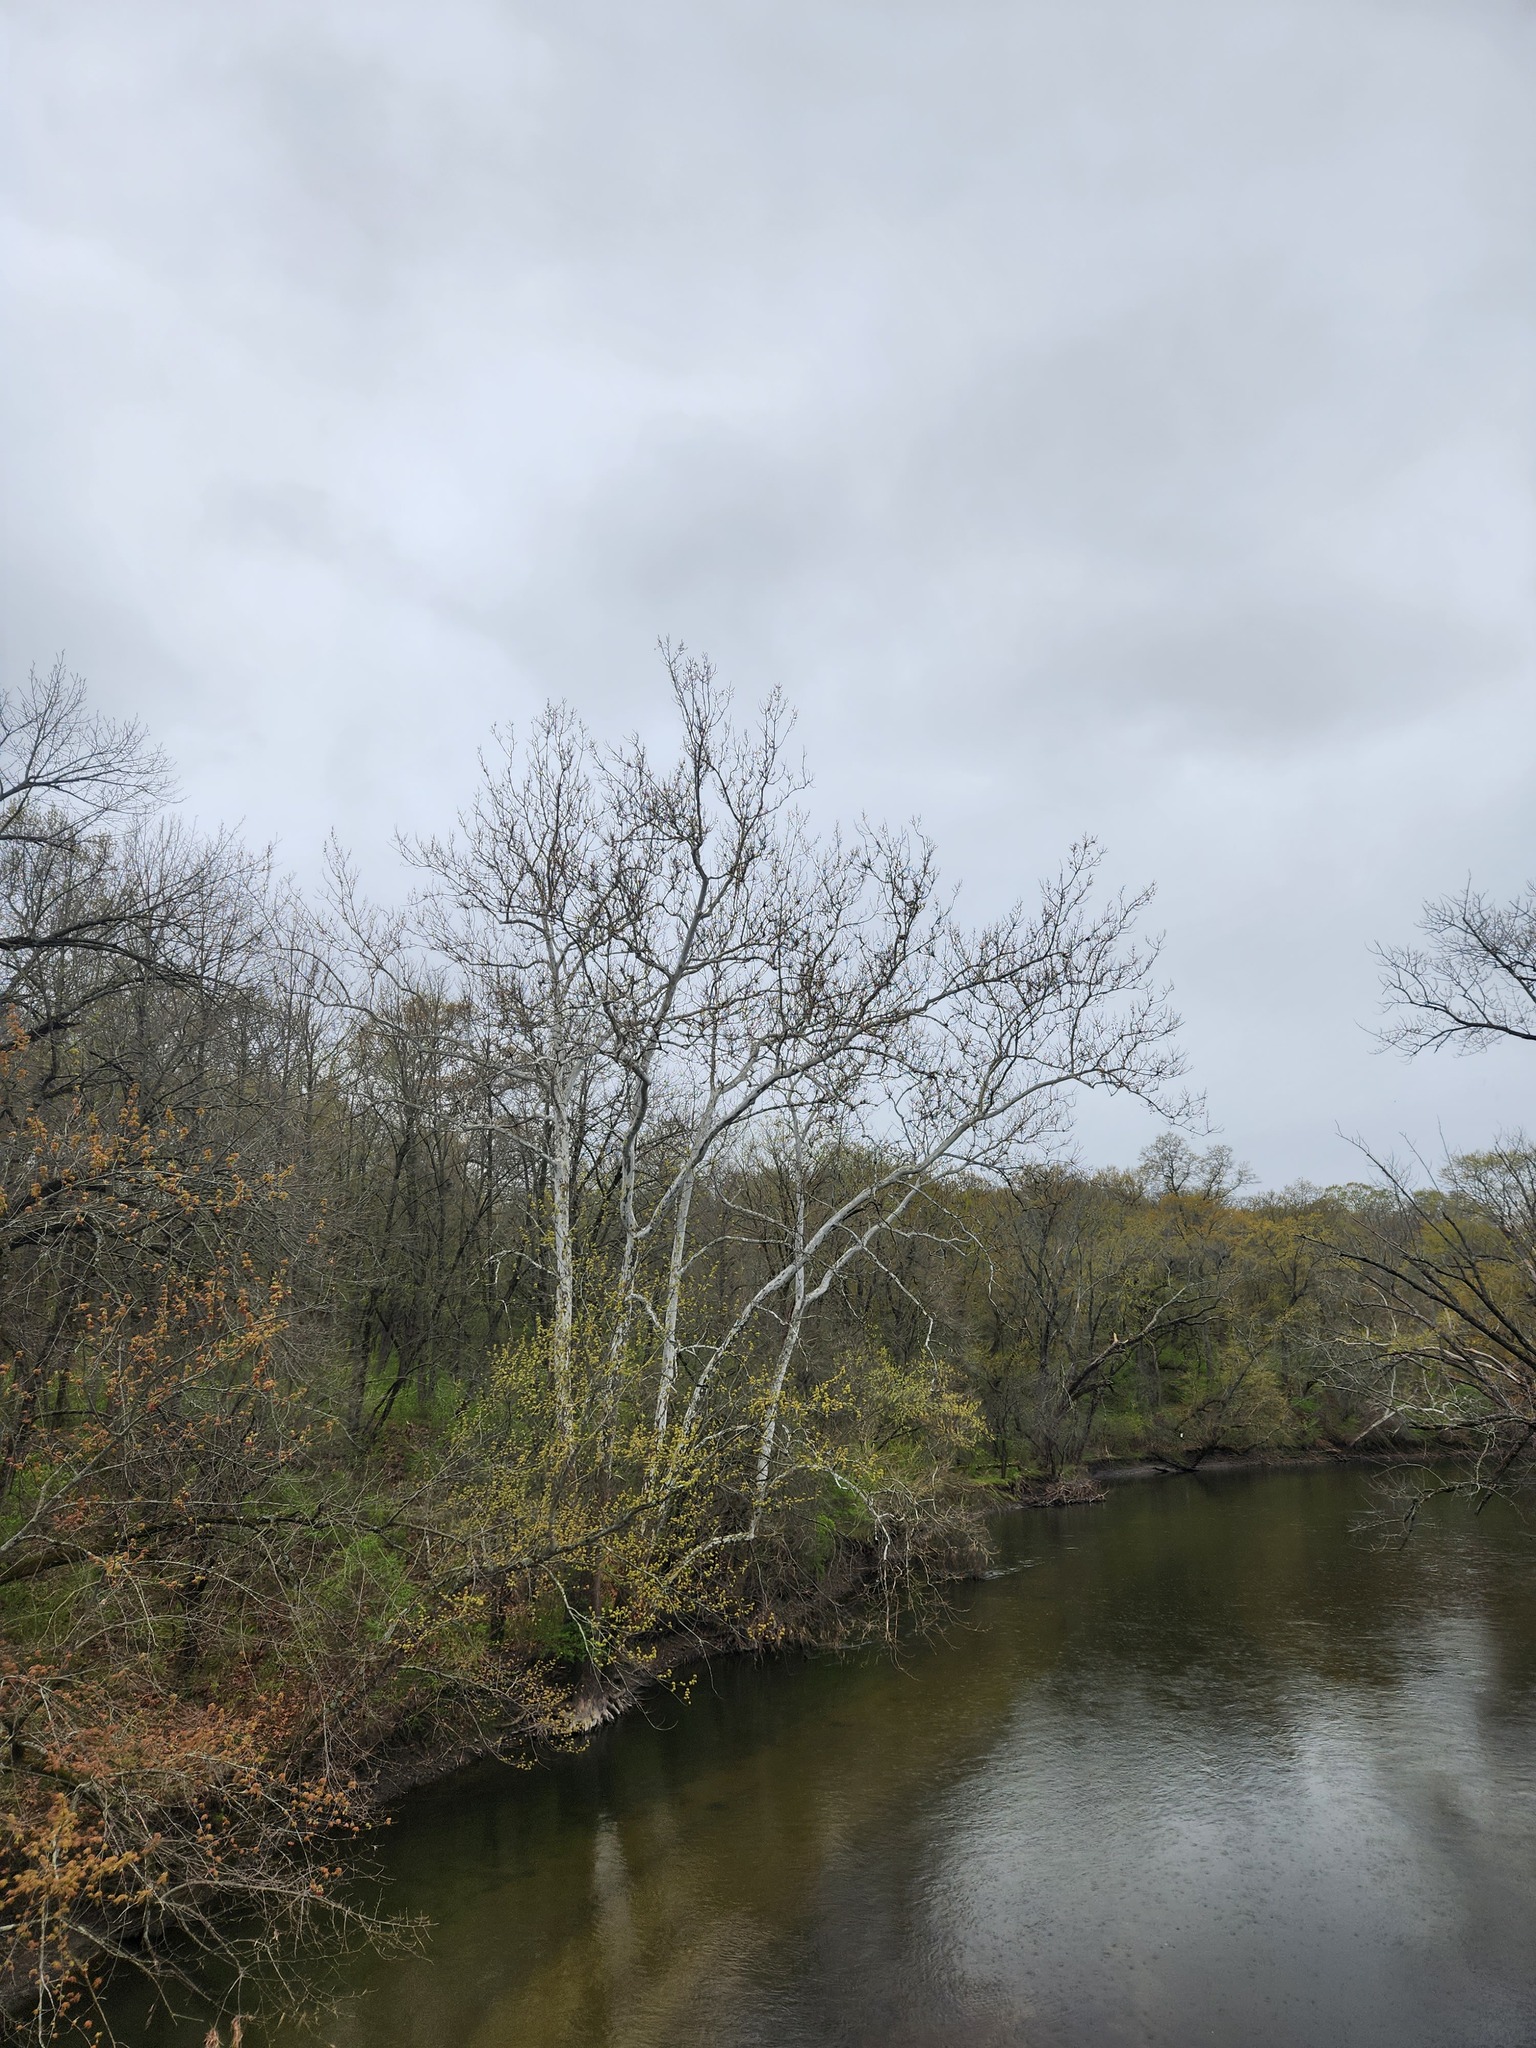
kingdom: Plantae
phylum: Tracheophyta
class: Magnoliopsida
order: Proteales
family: Platanaceae
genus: Platanus
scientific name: Platanus occidentalis
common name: American sycamore
